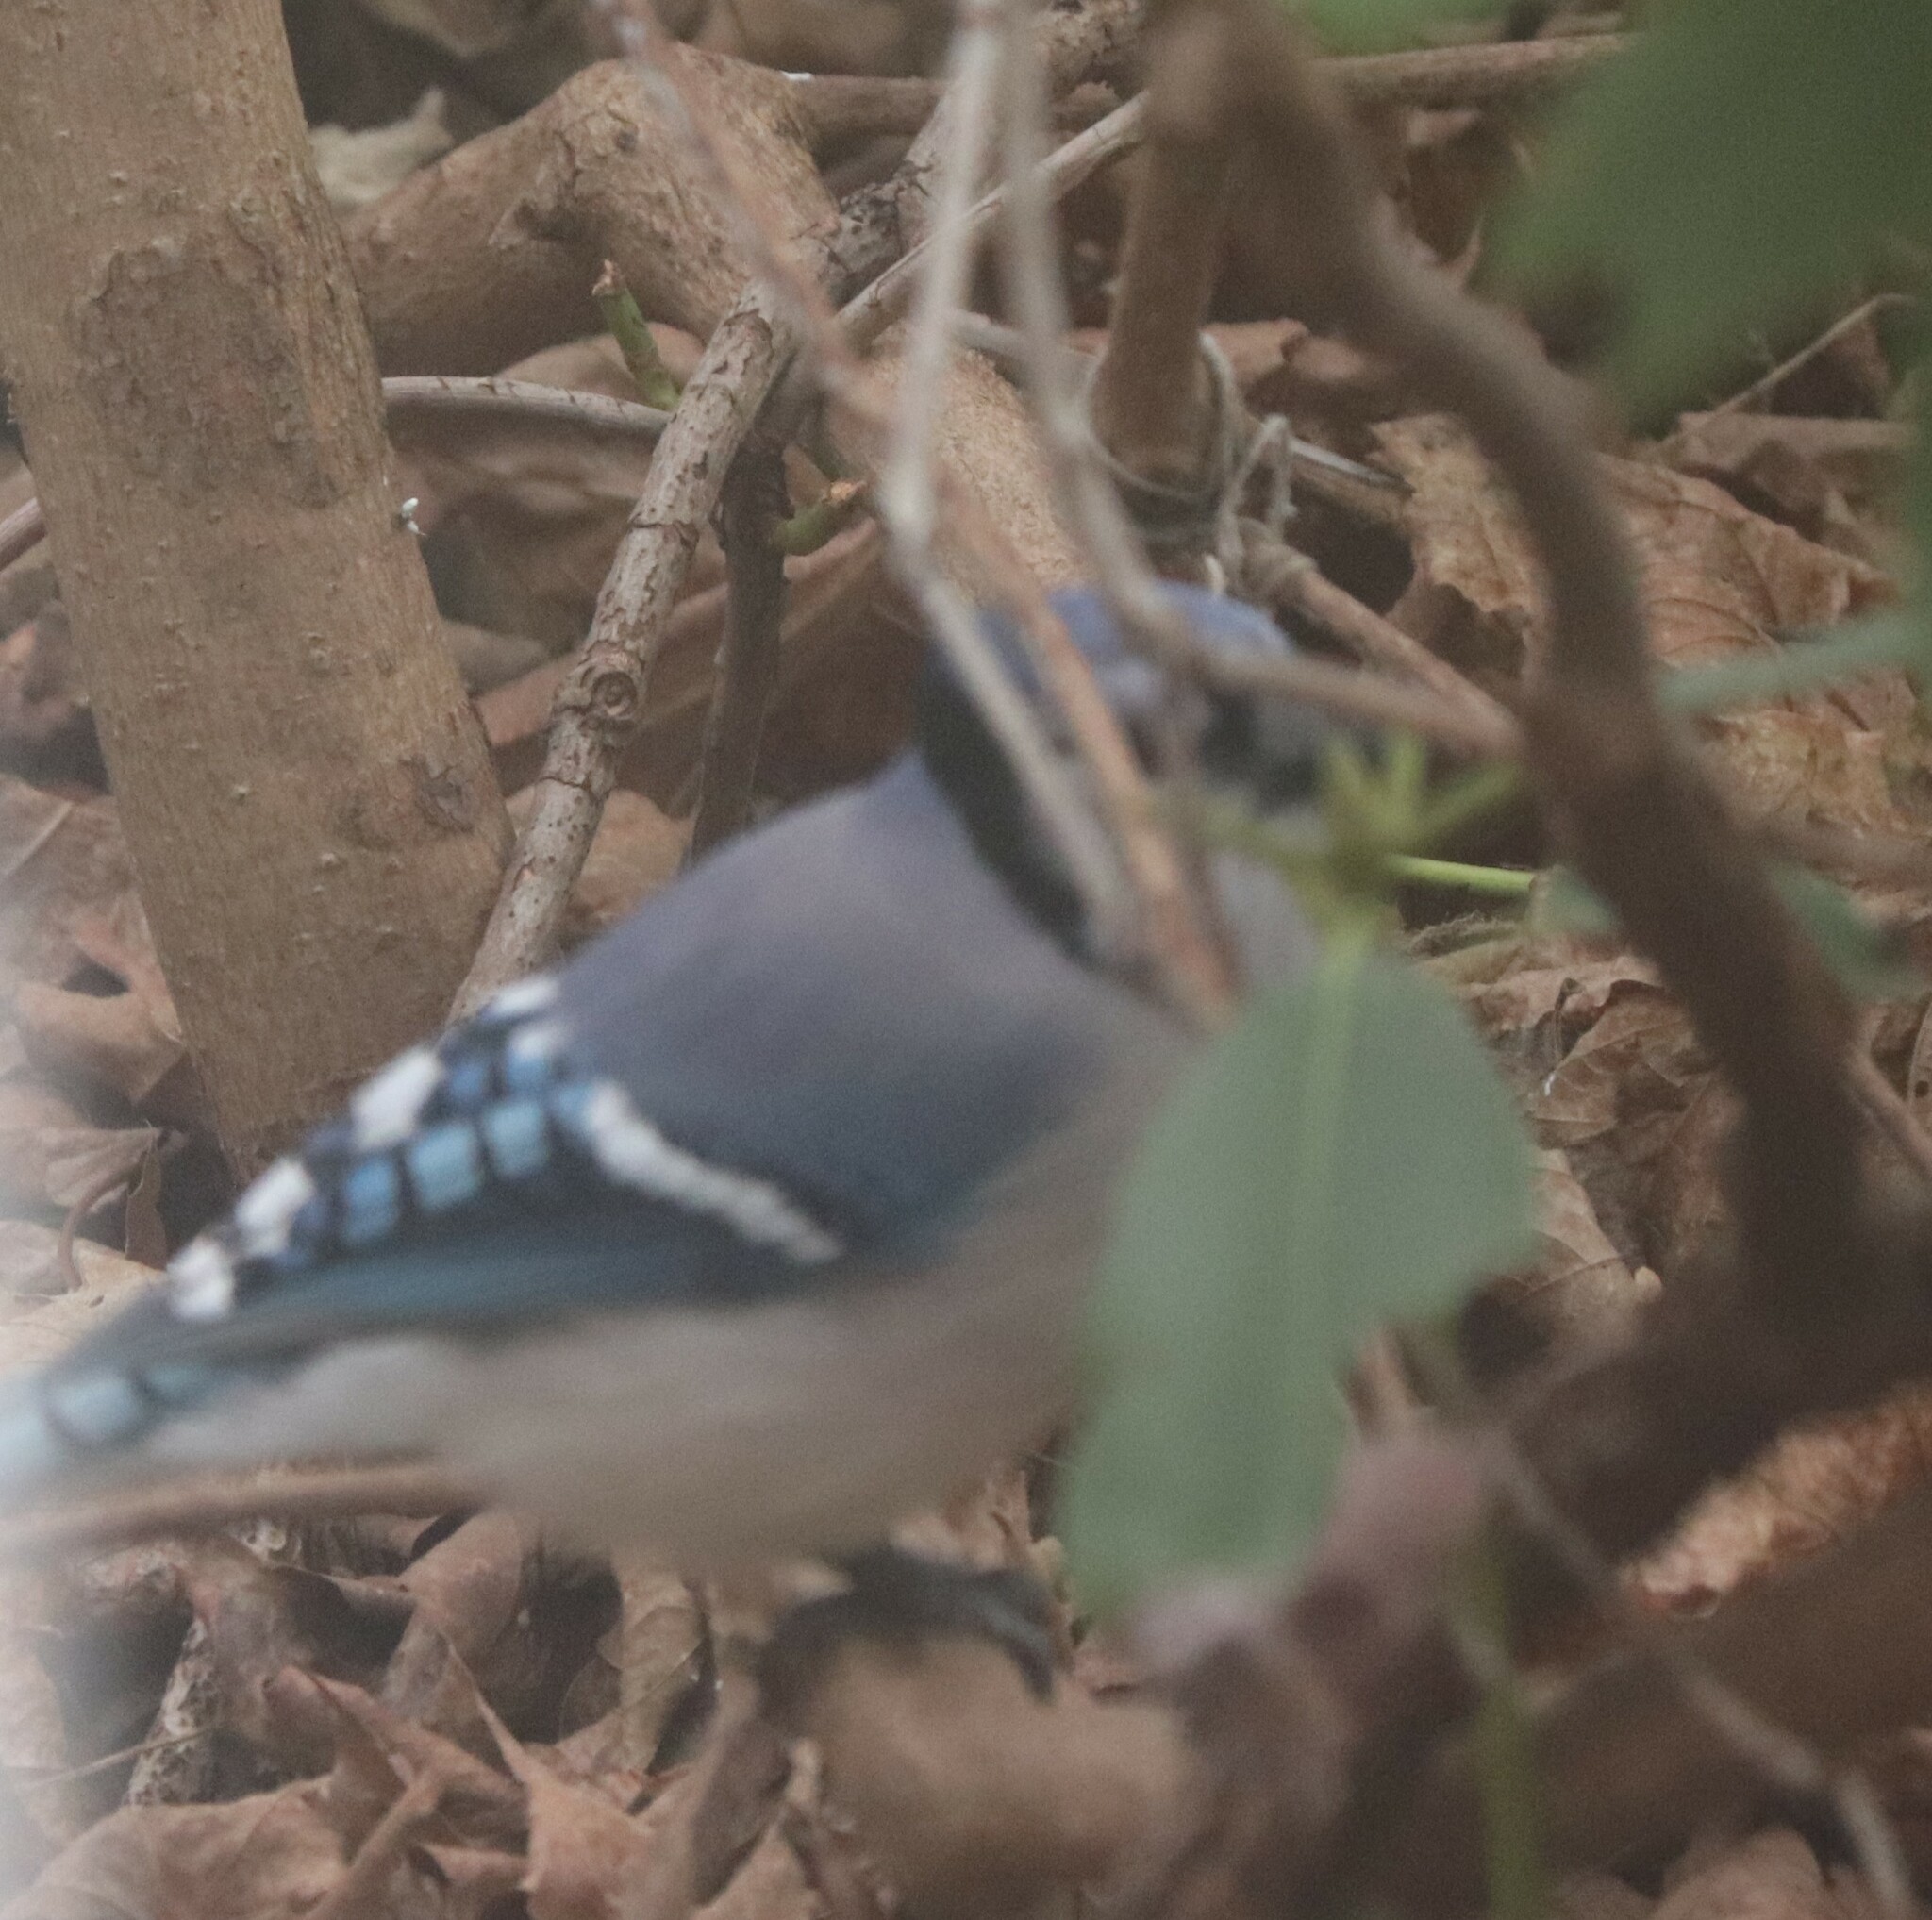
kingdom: Animalia
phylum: Chordata
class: Aves
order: Passeriformes
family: Corvidae
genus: Cyanocitta
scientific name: Cyanocitta cristata
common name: Blue jay
